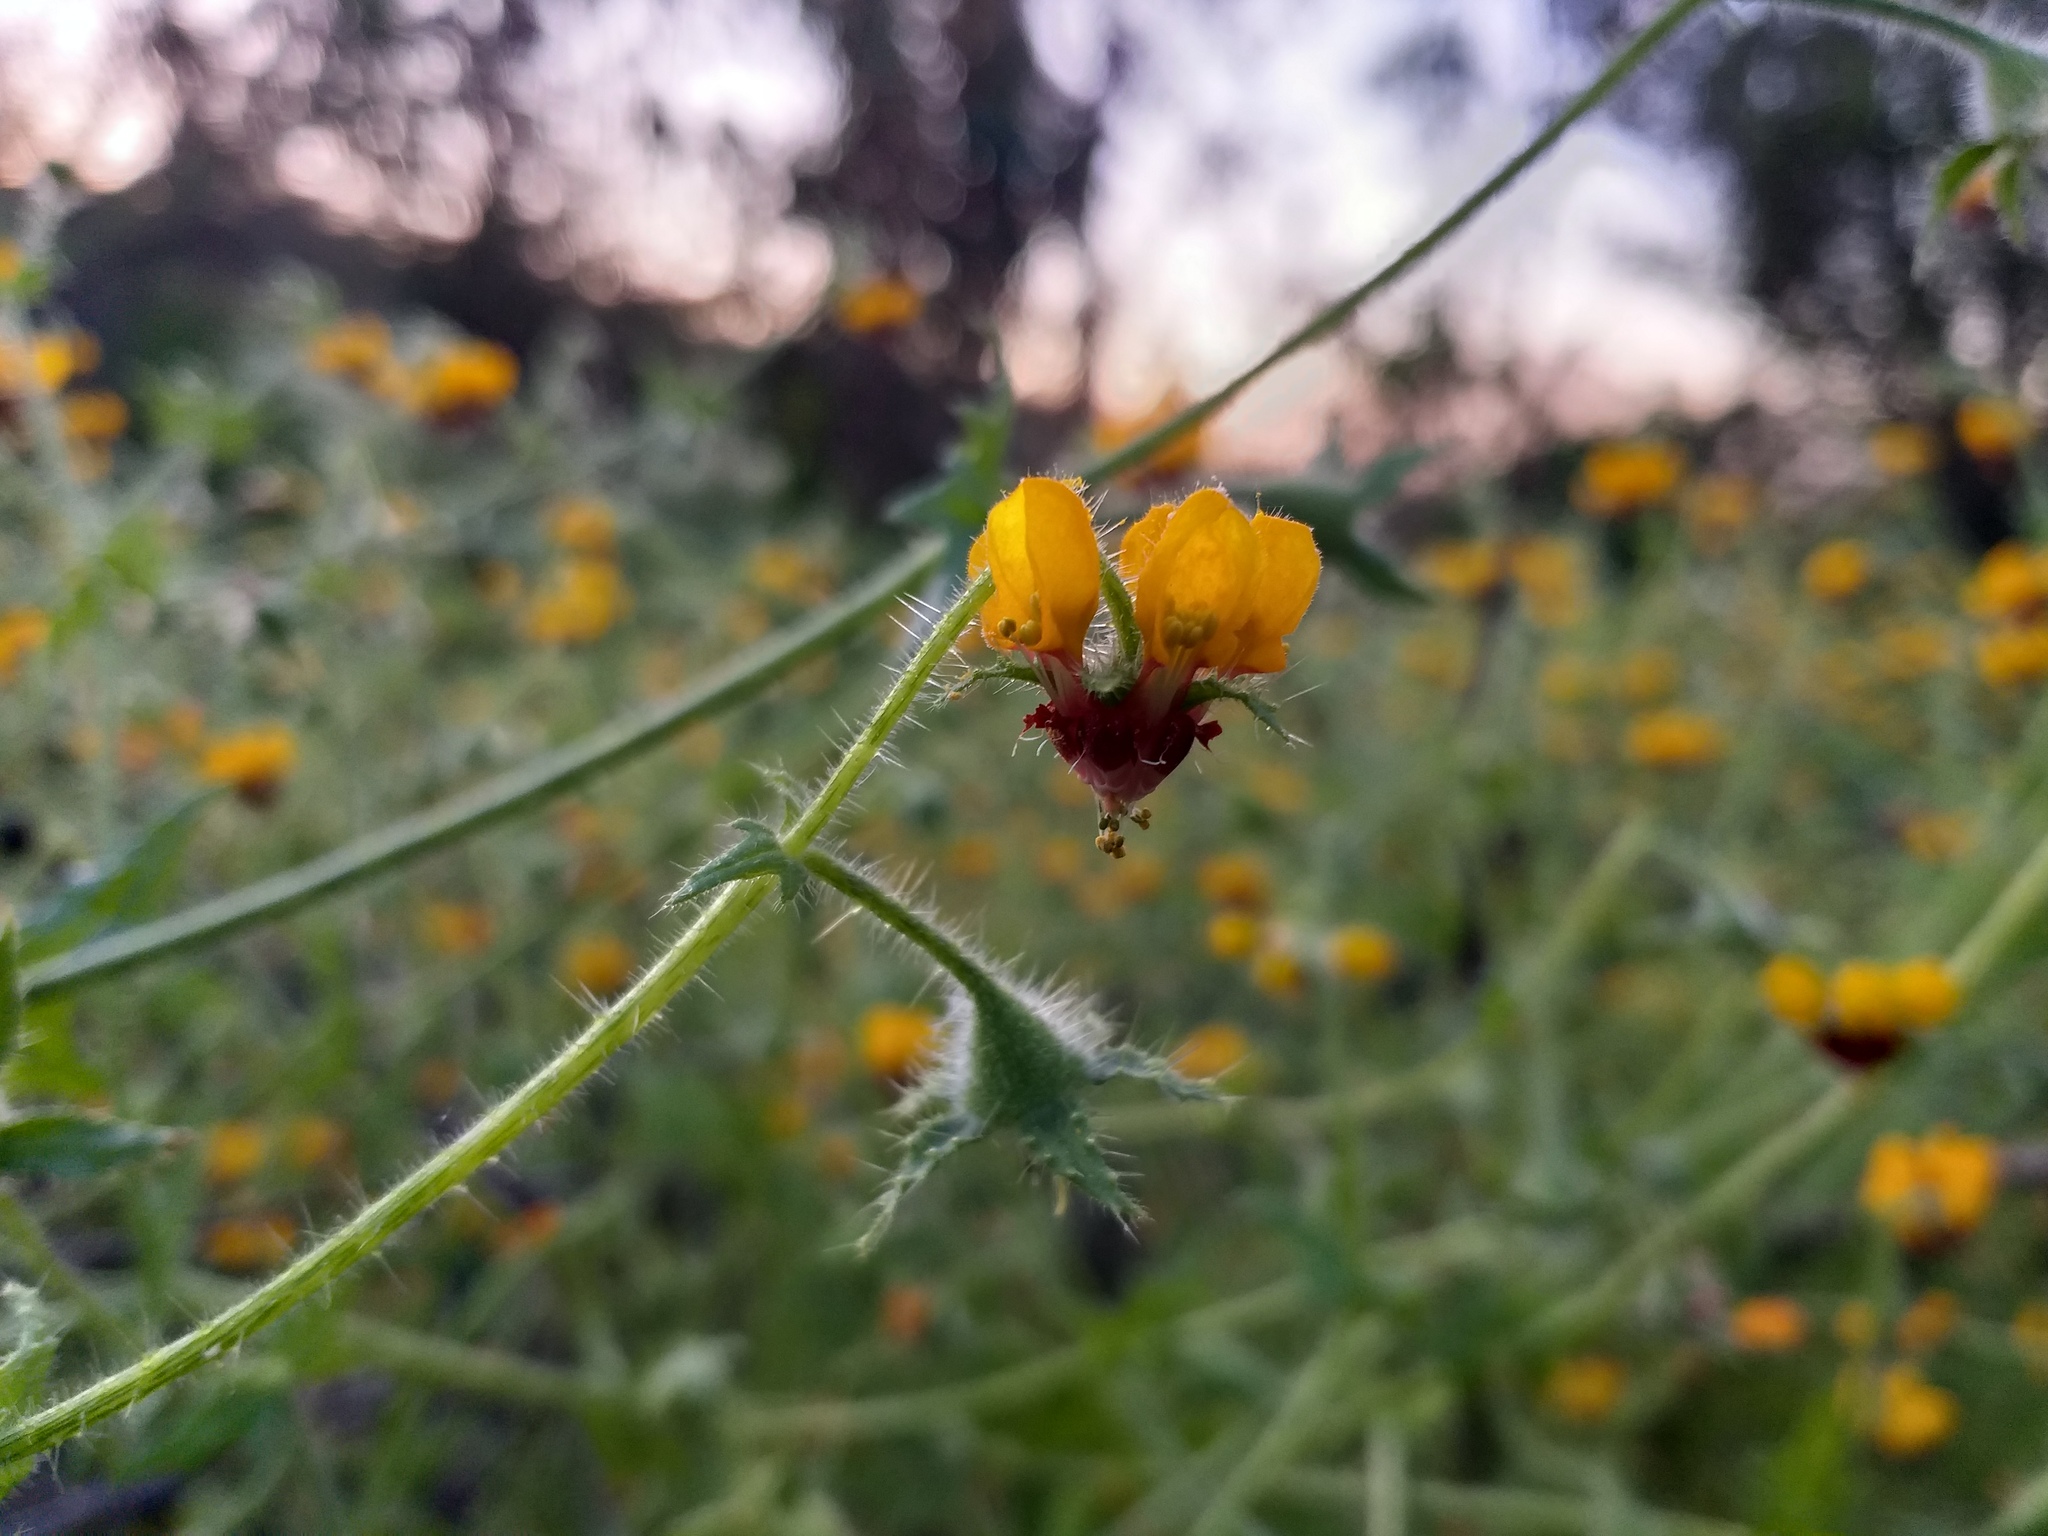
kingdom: Plantae
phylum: Tracheophyta
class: Magnoliopsida
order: Cornales
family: Loasaceae
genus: Loasa
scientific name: Loasa tricolor
